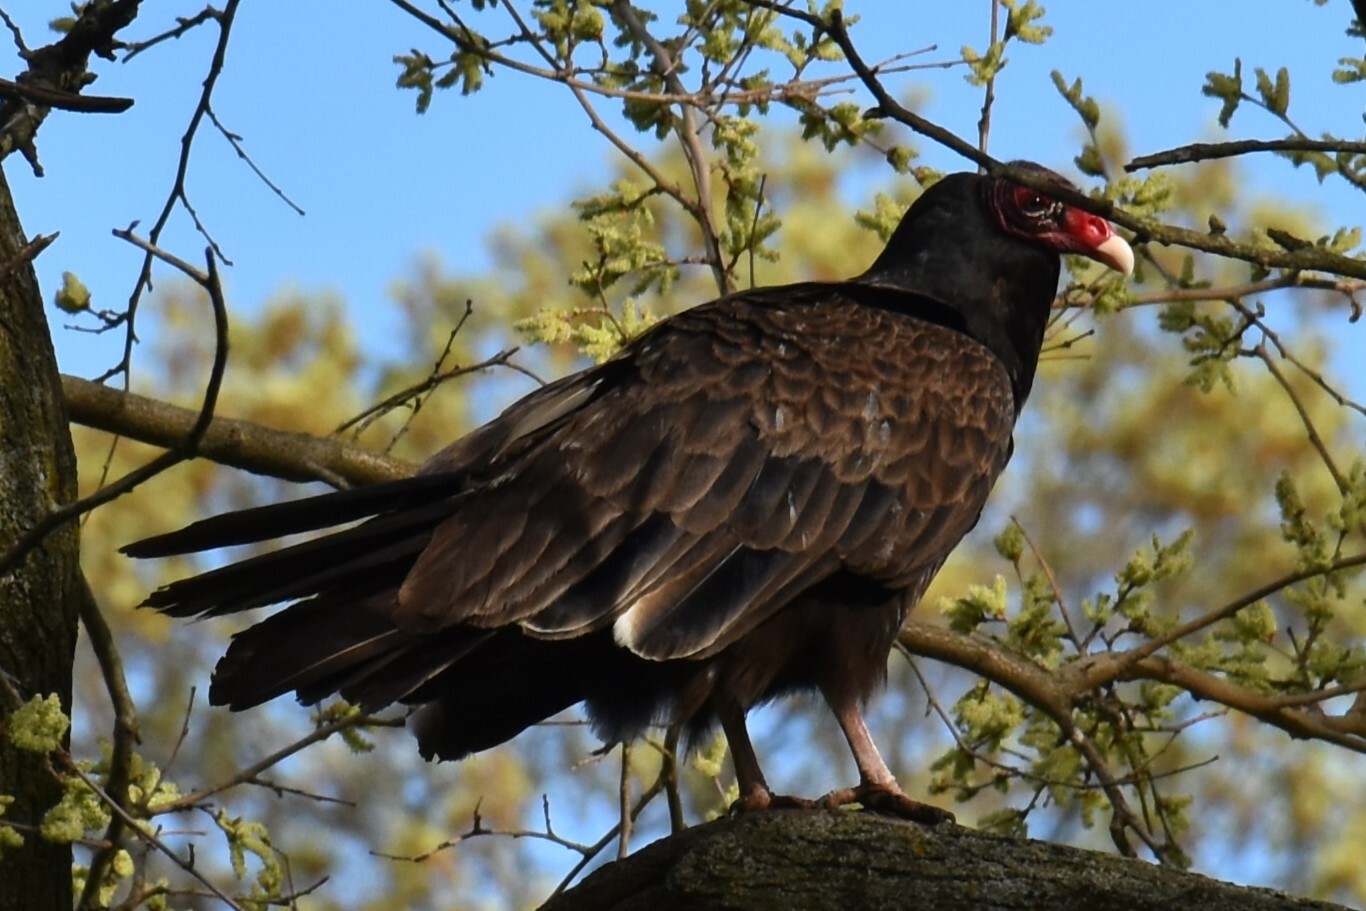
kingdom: Animalia
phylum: Chordata
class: Aves
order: Accipitriformes
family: Cathartidae
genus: Cathartes
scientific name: Cathartes aura
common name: Turkey vulture
